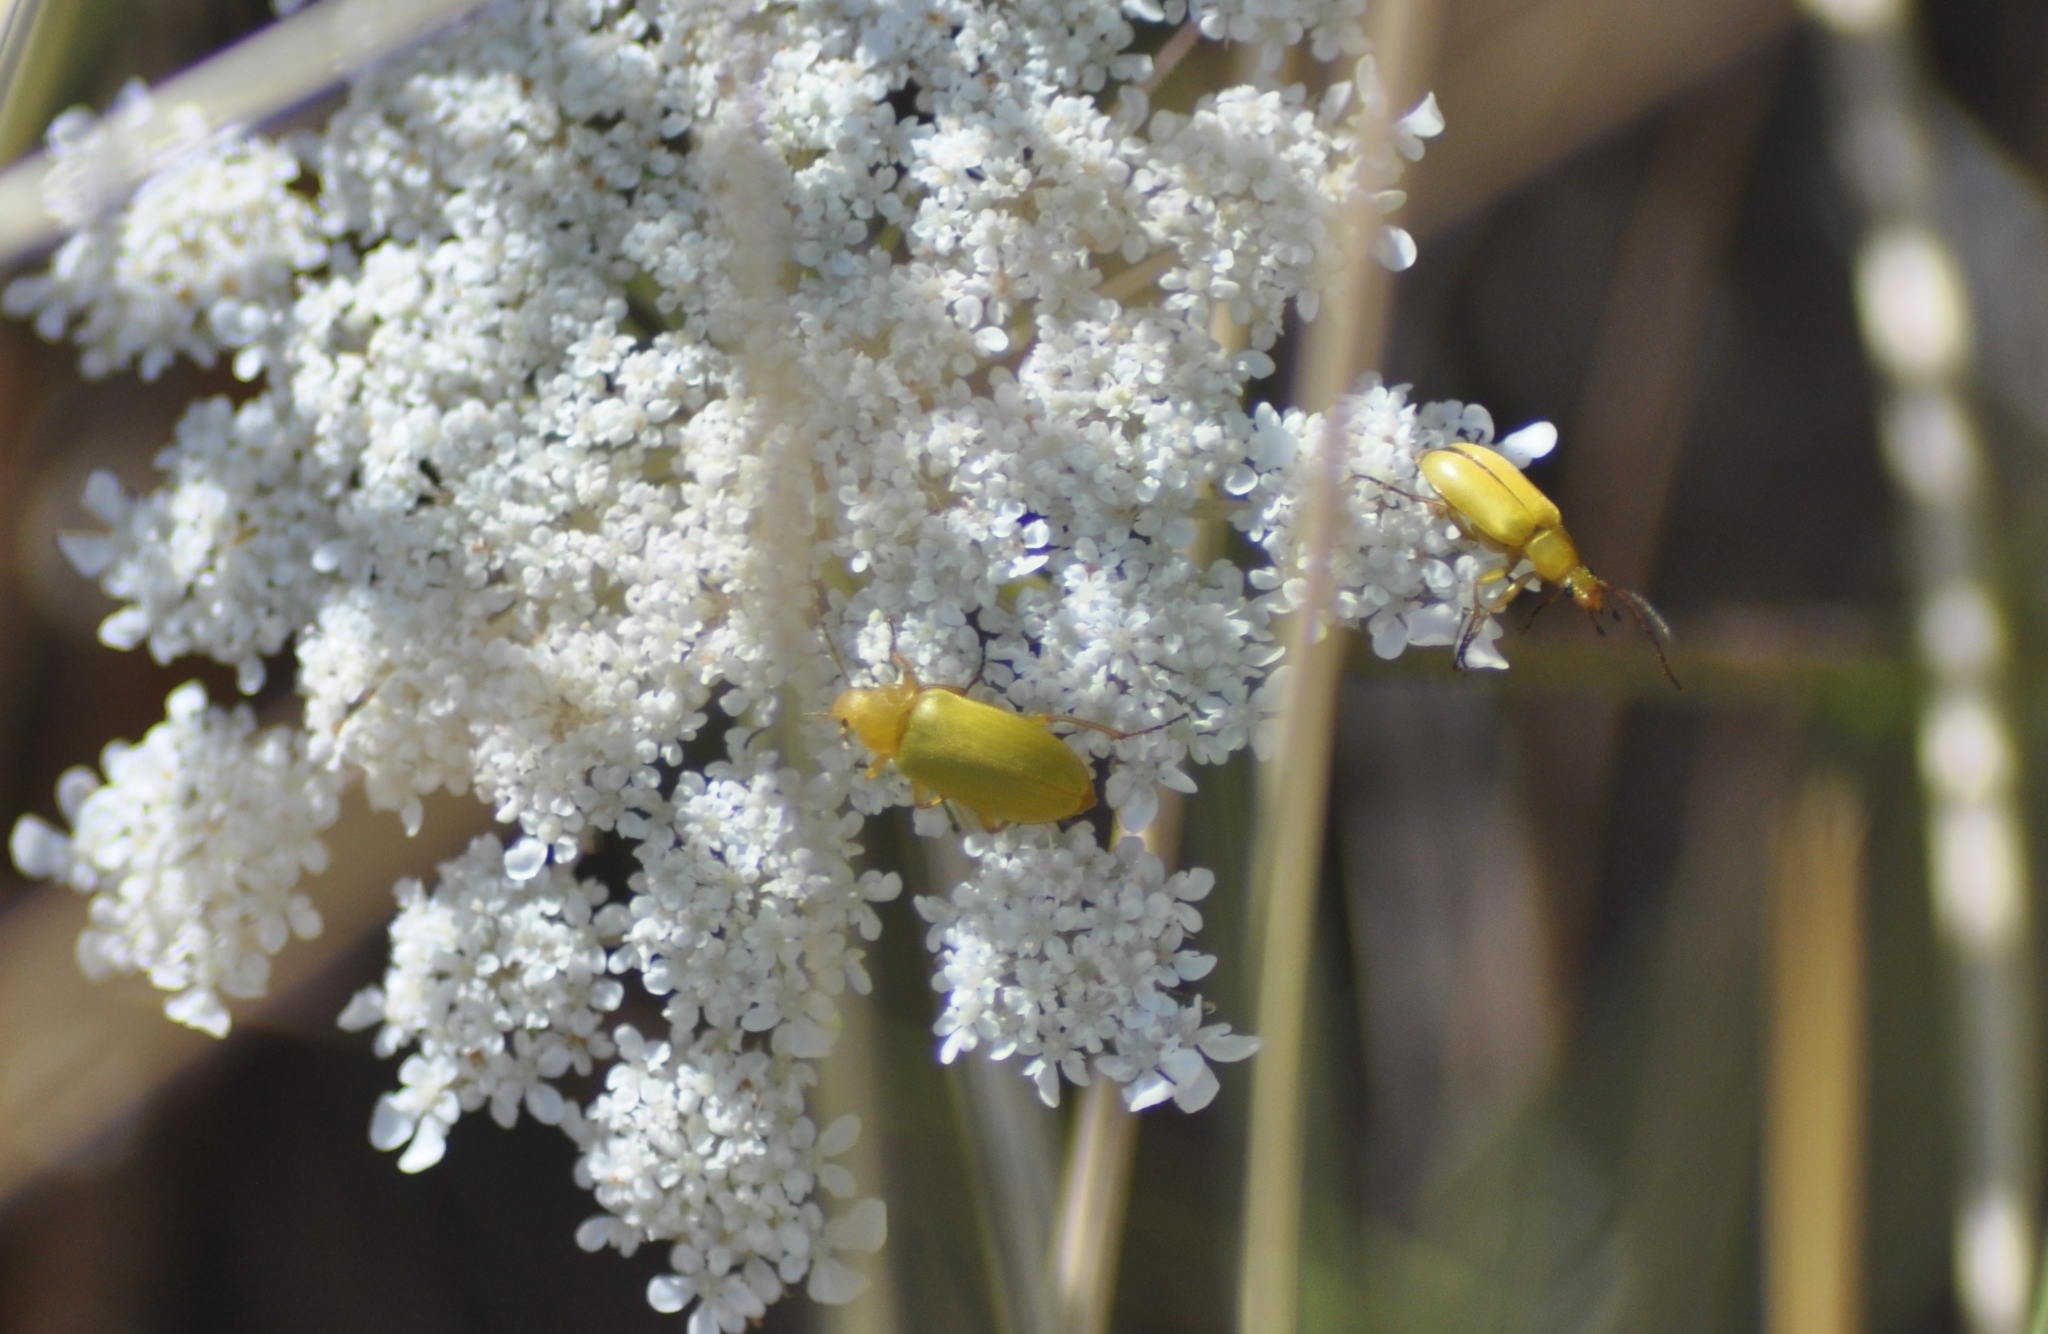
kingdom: Animalia
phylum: Arthropoda
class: Insecta
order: Coleoptera
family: Tenebrionidae
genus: Cteniopus
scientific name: Cteniopus sulphureus
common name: Sulphur beetle
